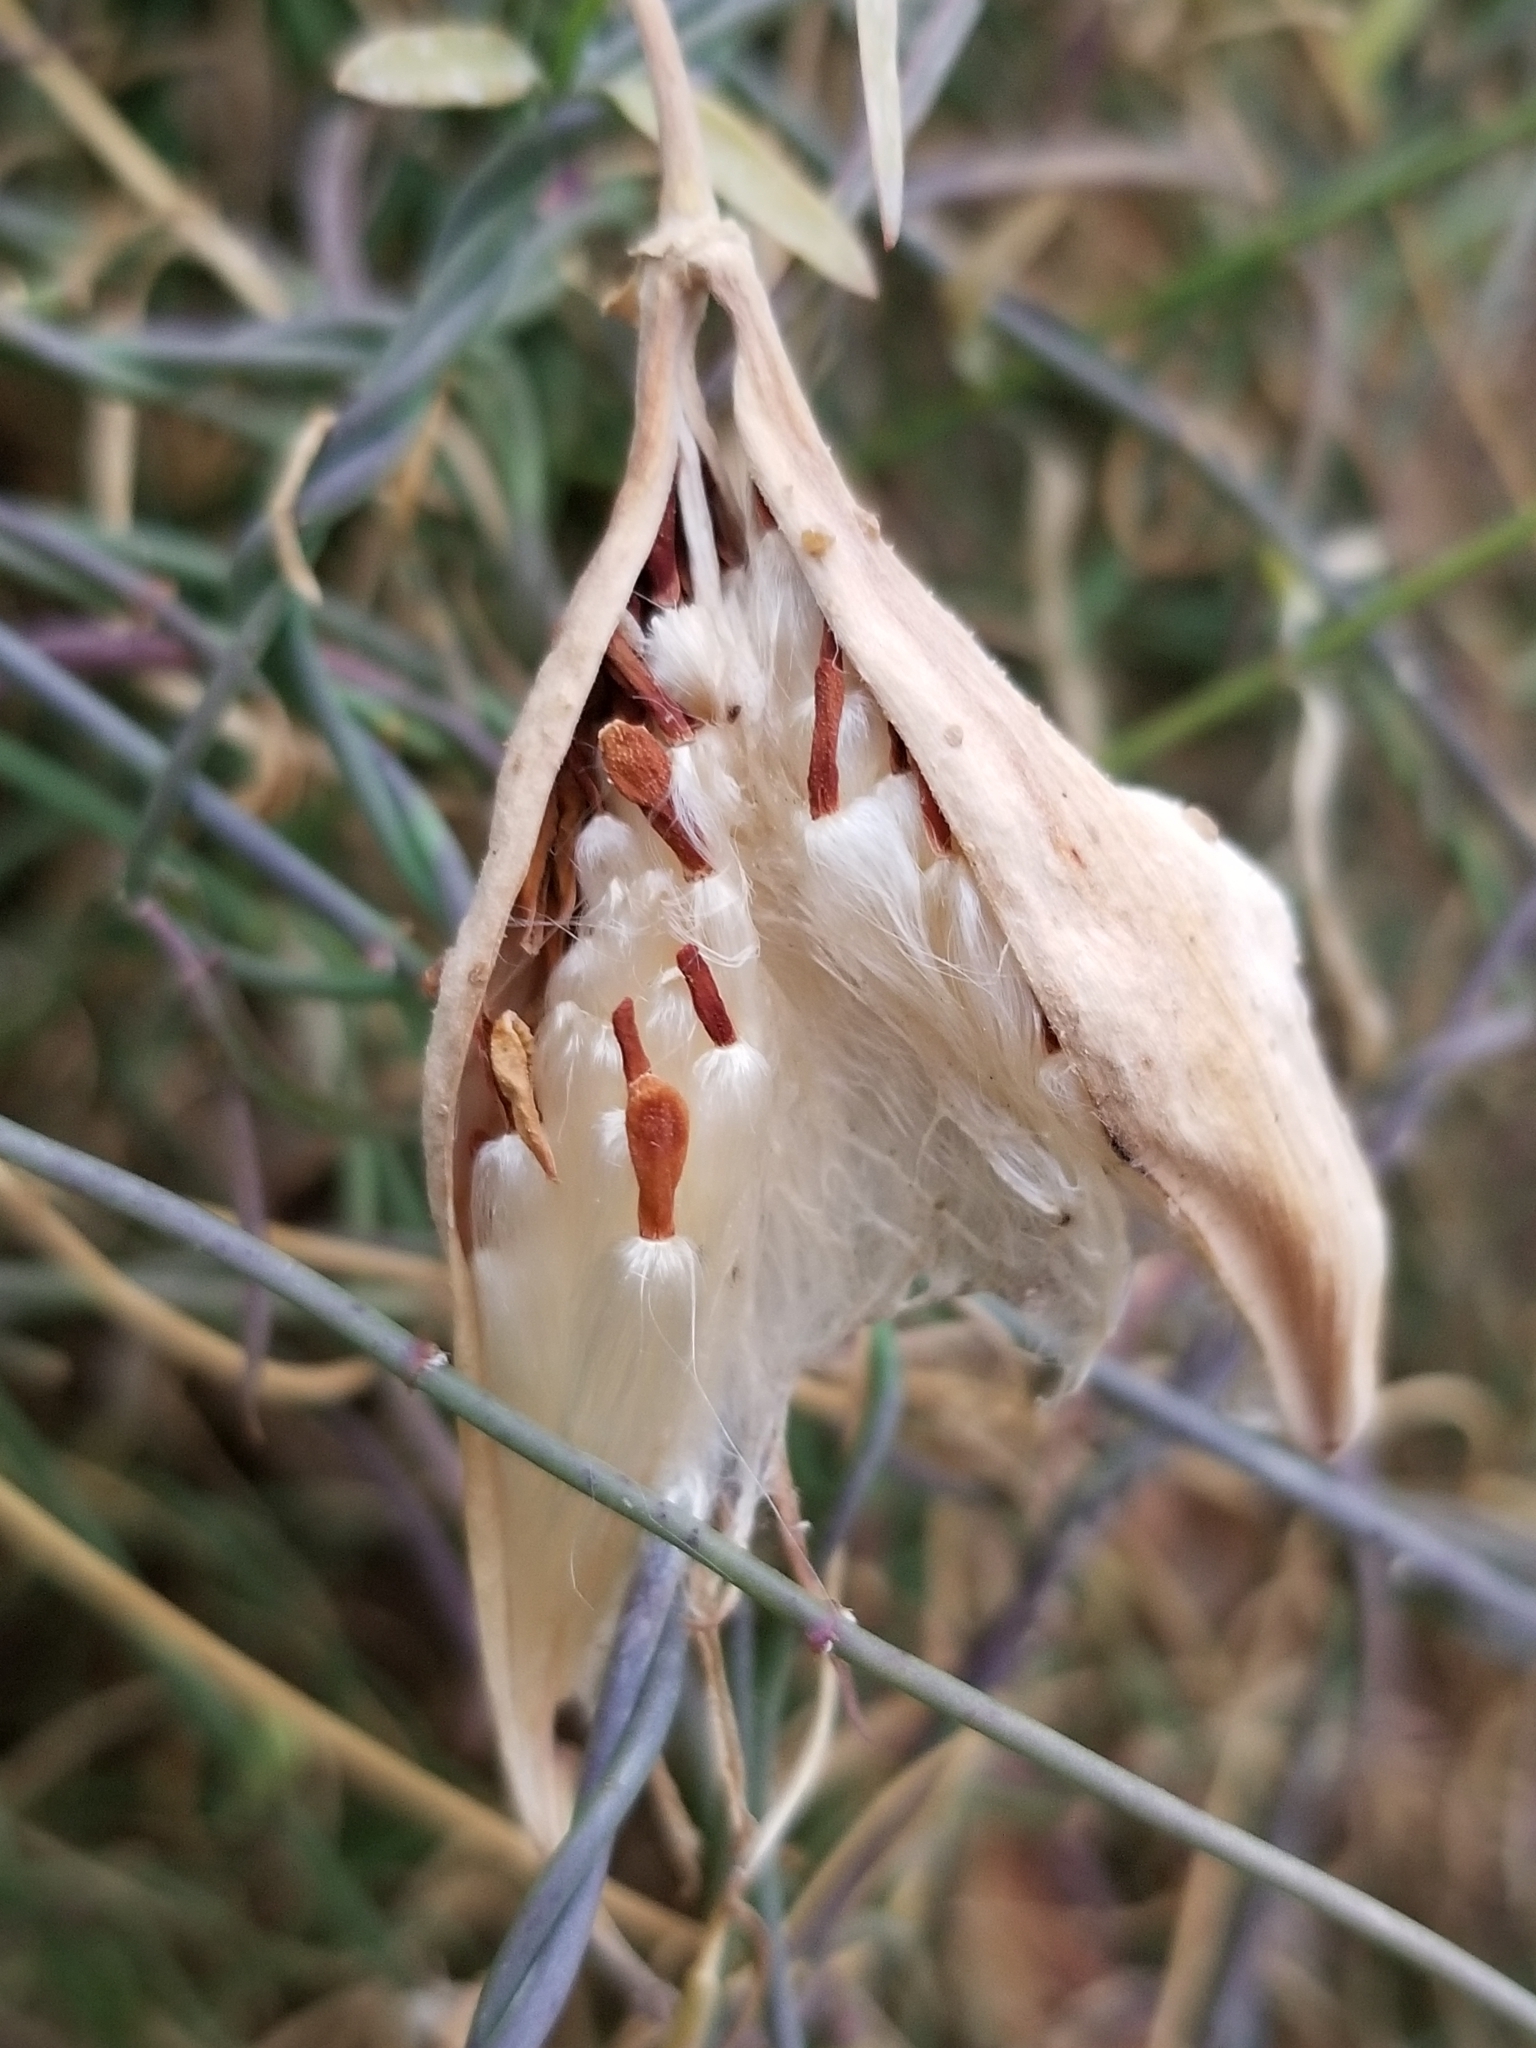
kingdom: Plantae
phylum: Tracheophyta
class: Magnoliopsida
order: Gentianales
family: Apocynaceae
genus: Funastrum
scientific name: Funastrum heterophyllum
